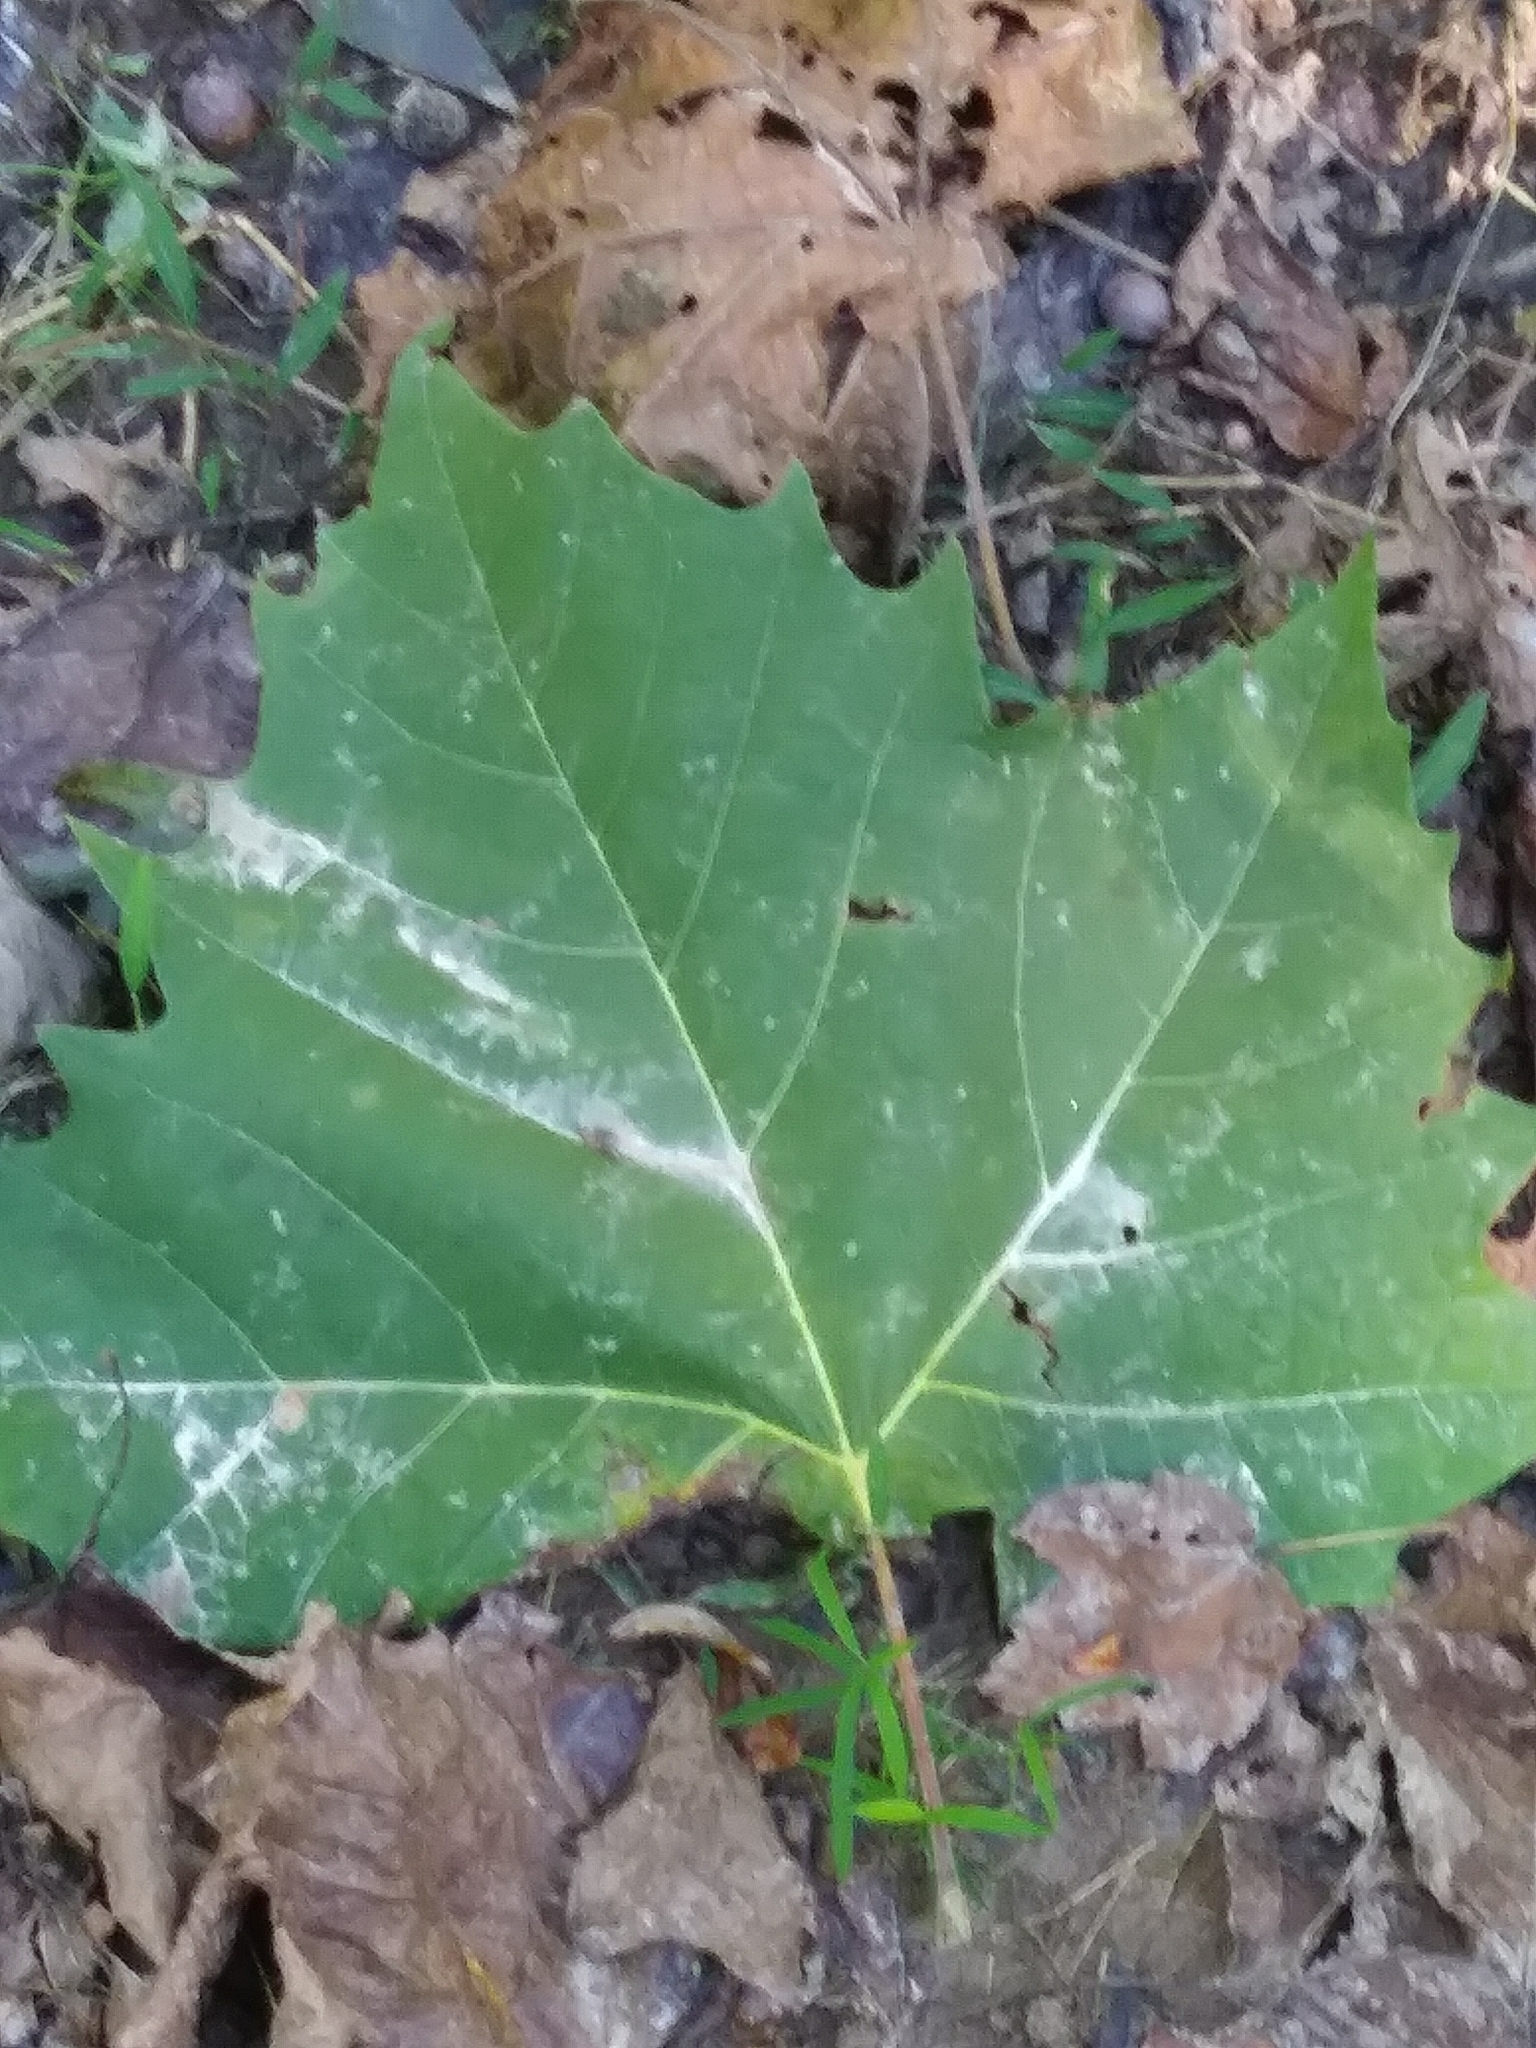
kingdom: Plantae
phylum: Tracheophyta
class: Magnoliopsida
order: Proteales
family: Platanaceae
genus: Platanus
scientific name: Platanus occidentalis
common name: American sycamore
